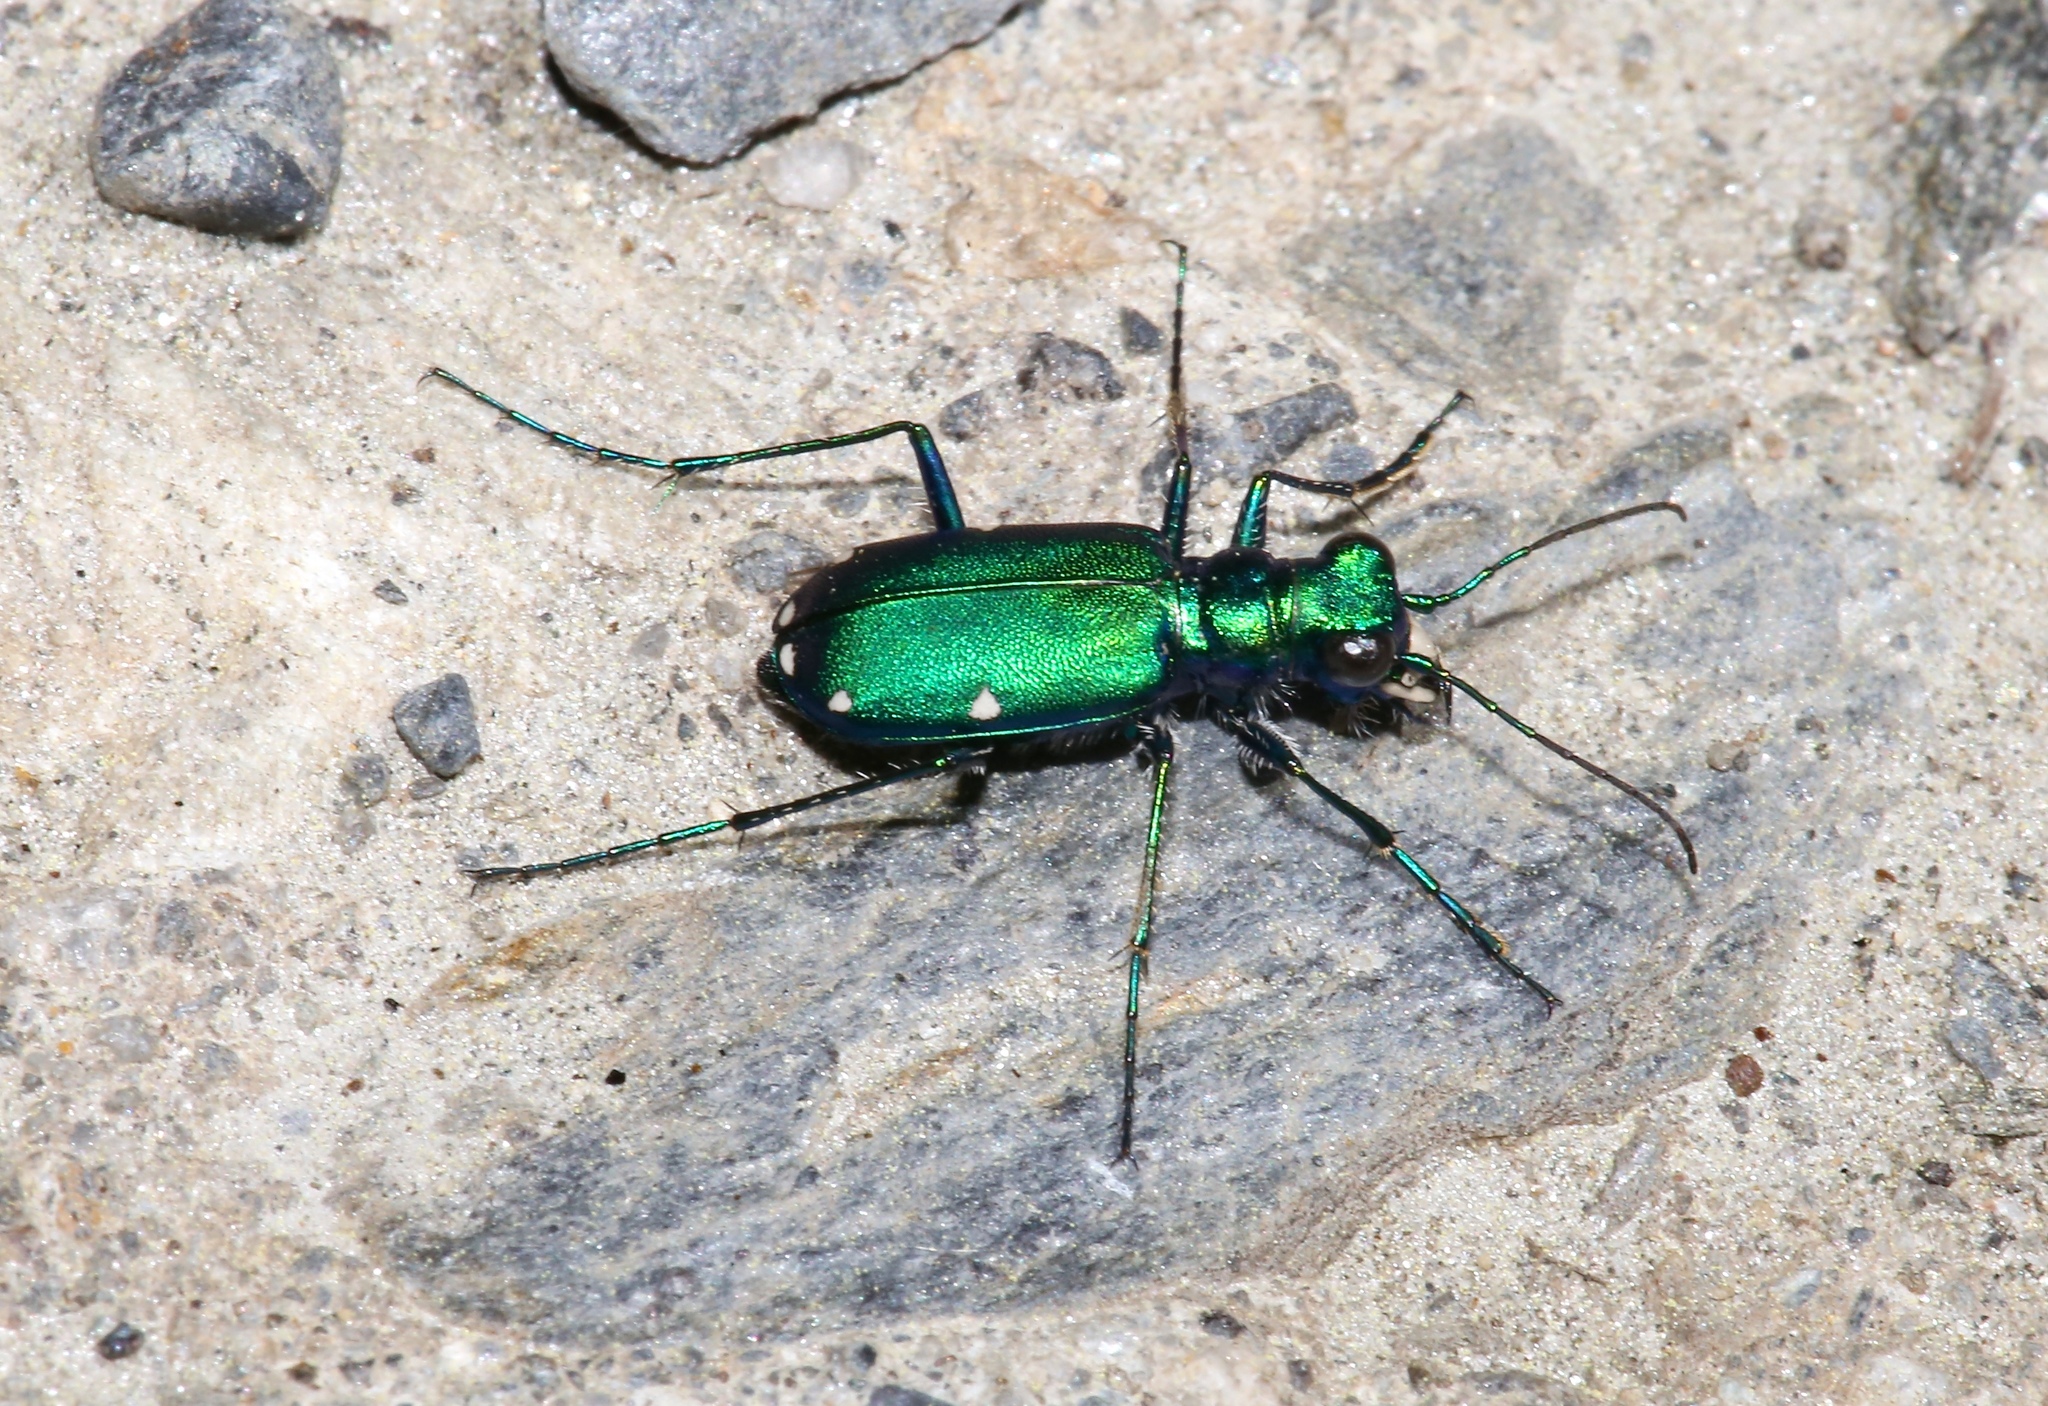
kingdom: Animalia
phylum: Arthropoda
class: Insecta
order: Coleoptera
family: Carabidae
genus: Cicindela
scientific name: Cicindela sexguttata
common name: Six-spotted tiger beetle
